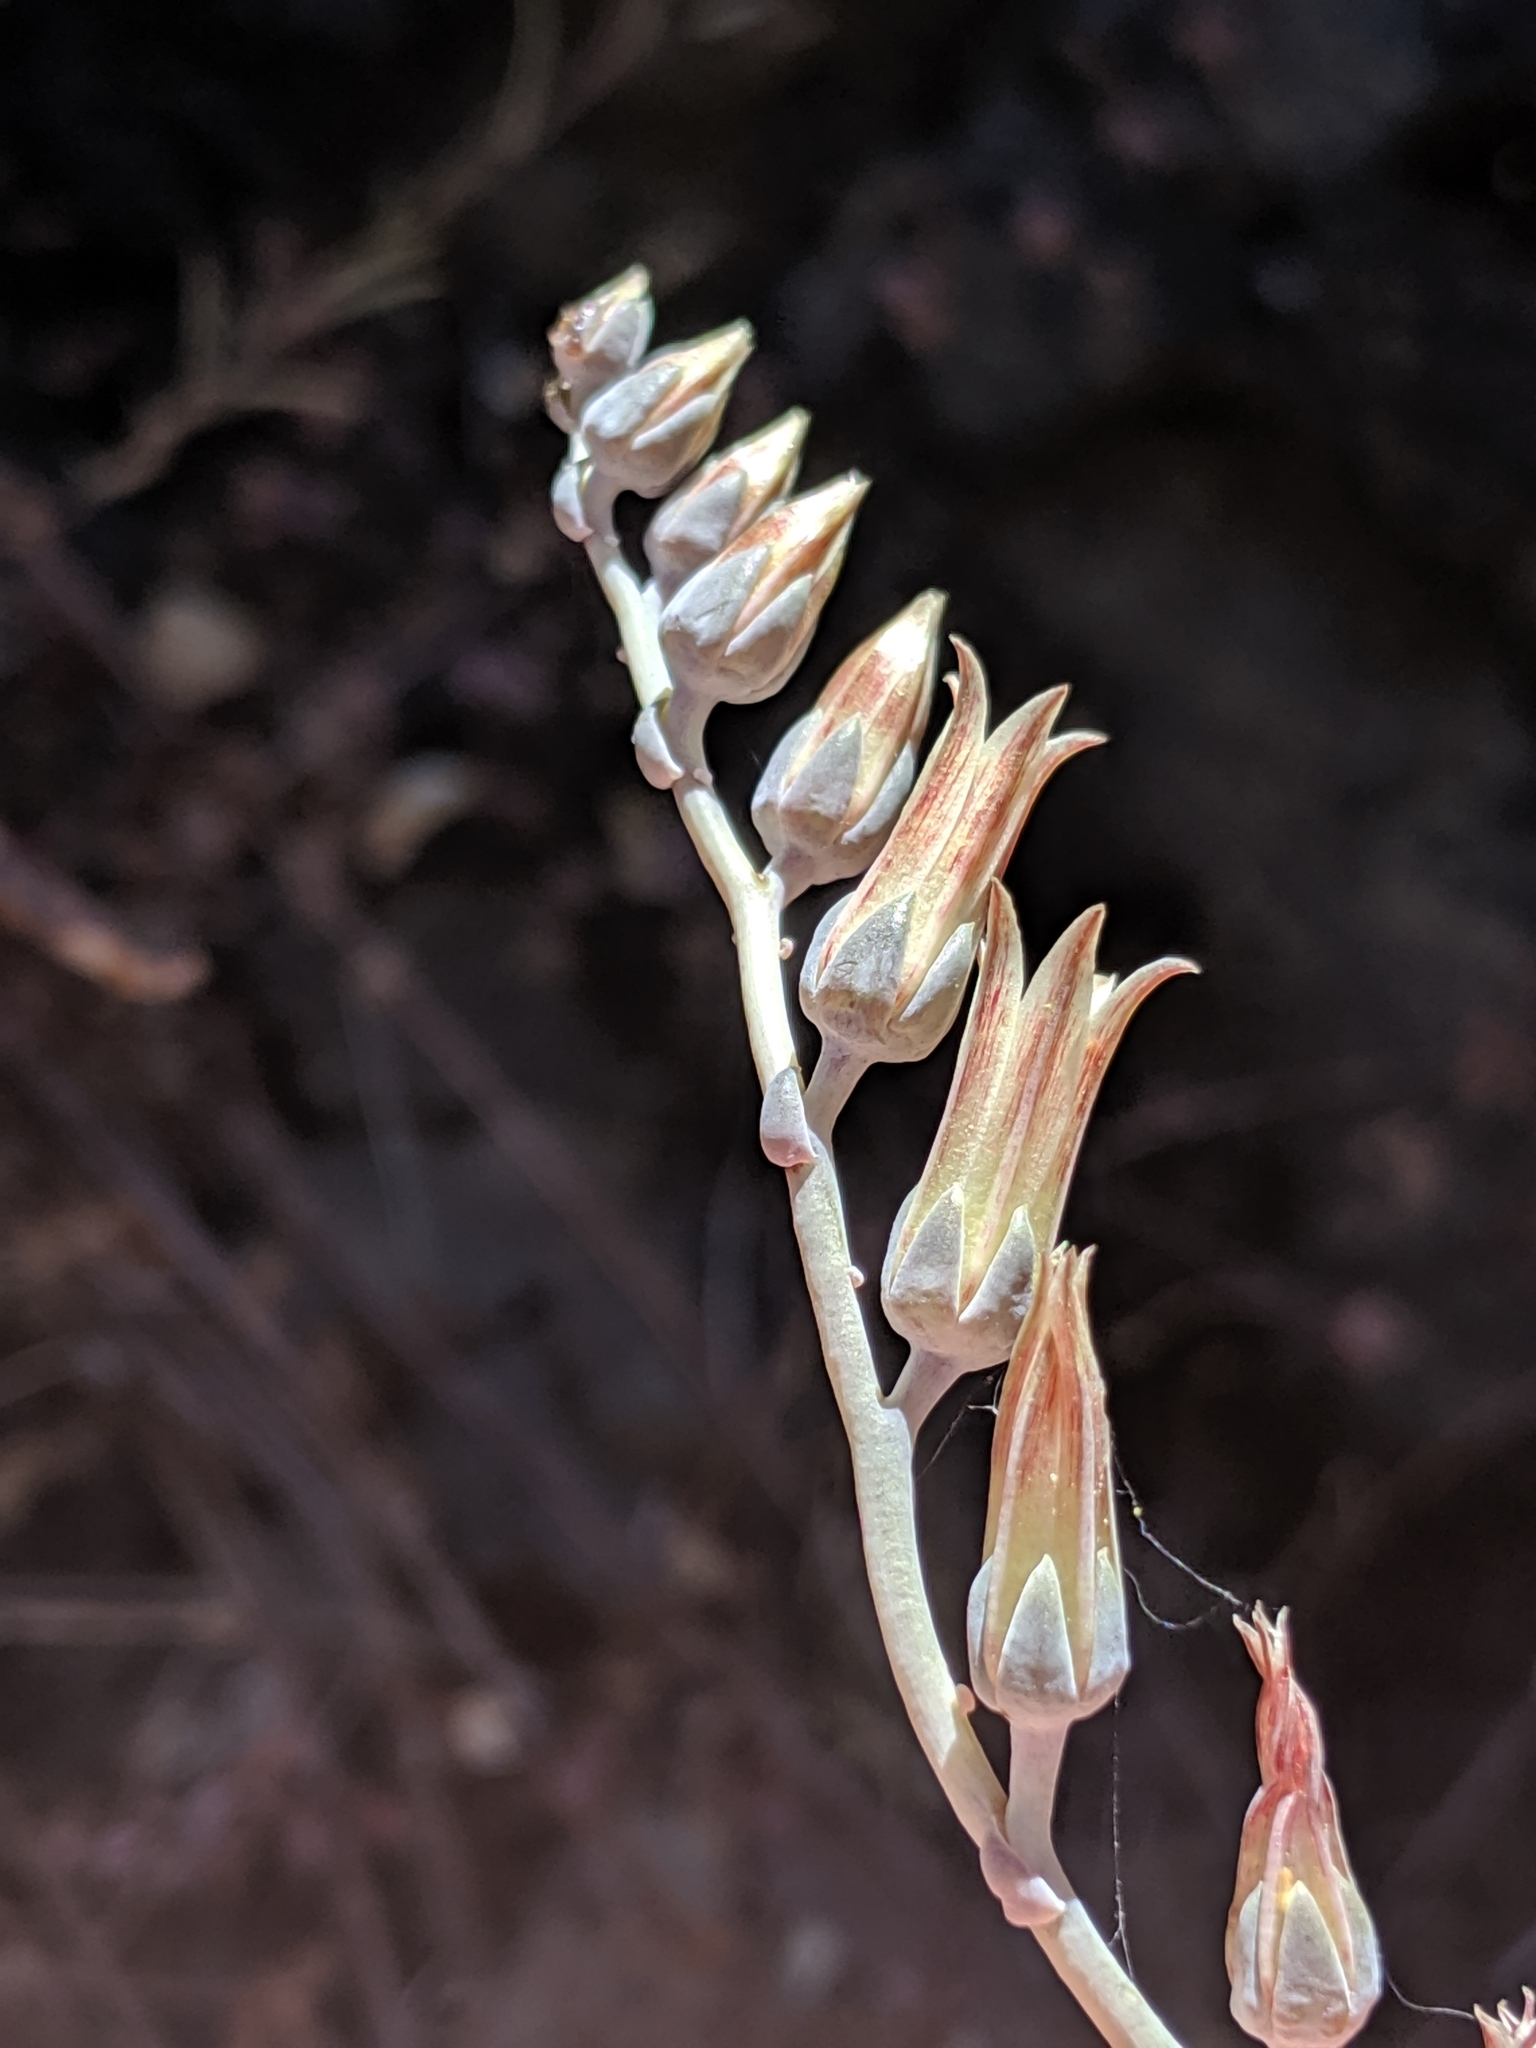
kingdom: Plantae
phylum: Tracheophyta
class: Magnoliopsida
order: Saxifragales
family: Crassulaceae
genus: Dudleya
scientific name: Dudleya abramsii
